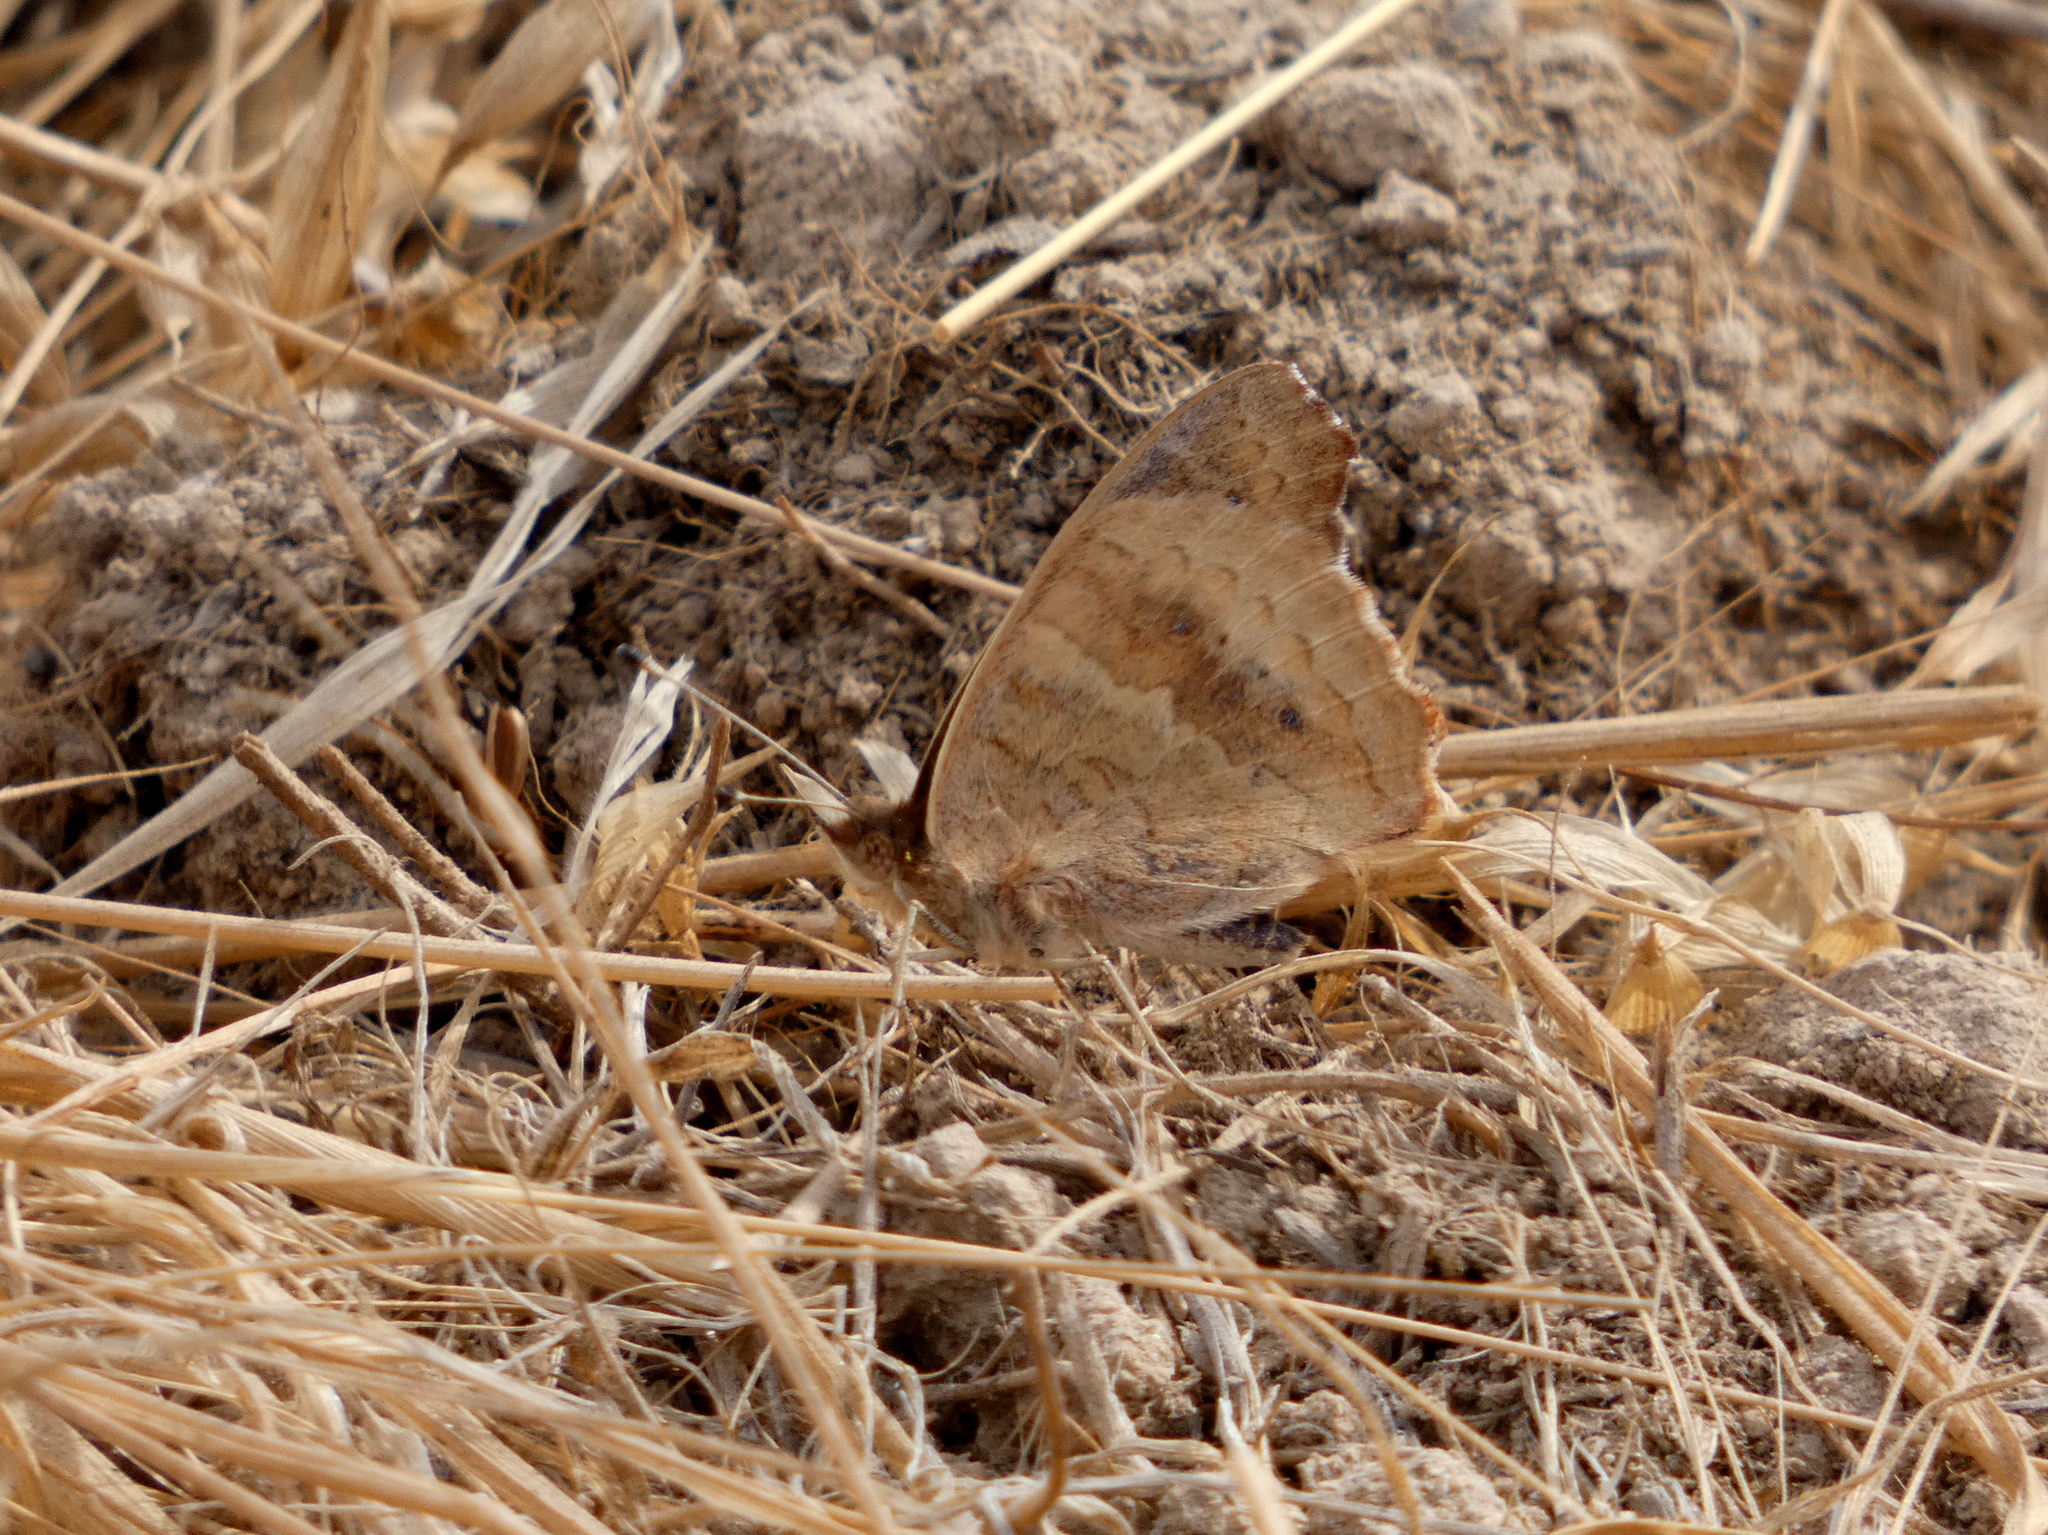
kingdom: Animalia
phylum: Arthropoda
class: Insecta
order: Lepidoptera
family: Nymphalidae
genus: Junonia
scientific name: Junonia grisea
